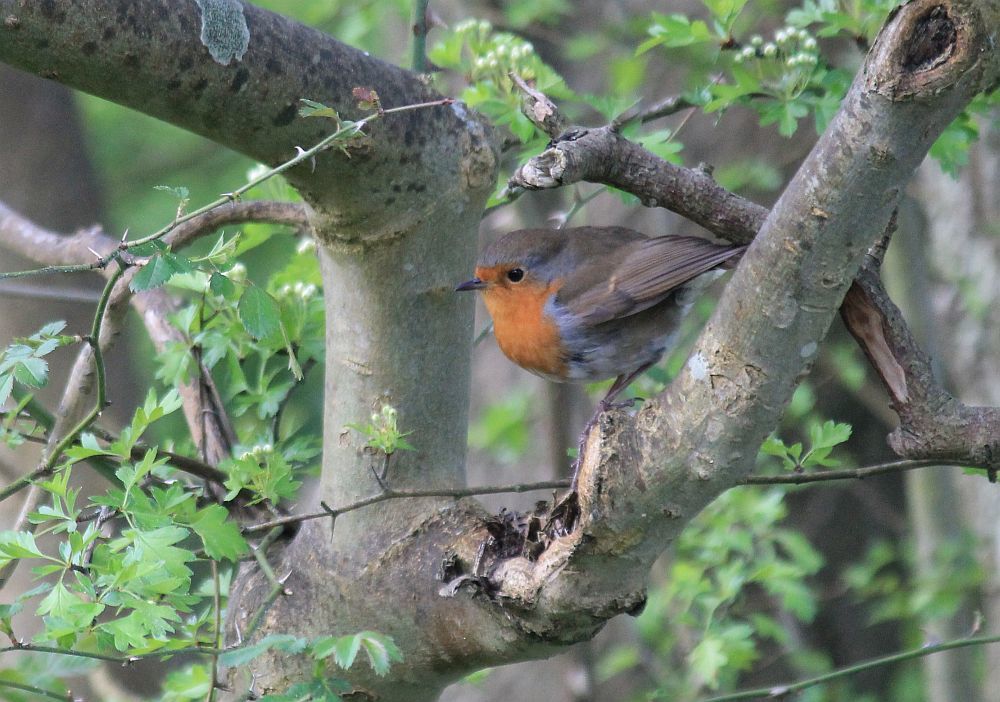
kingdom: Animalia
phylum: Chordata
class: Aves
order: Passeriformes
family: Muscicapidae
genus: Erithacus
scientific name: Erithacus rubecula
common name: European robin
